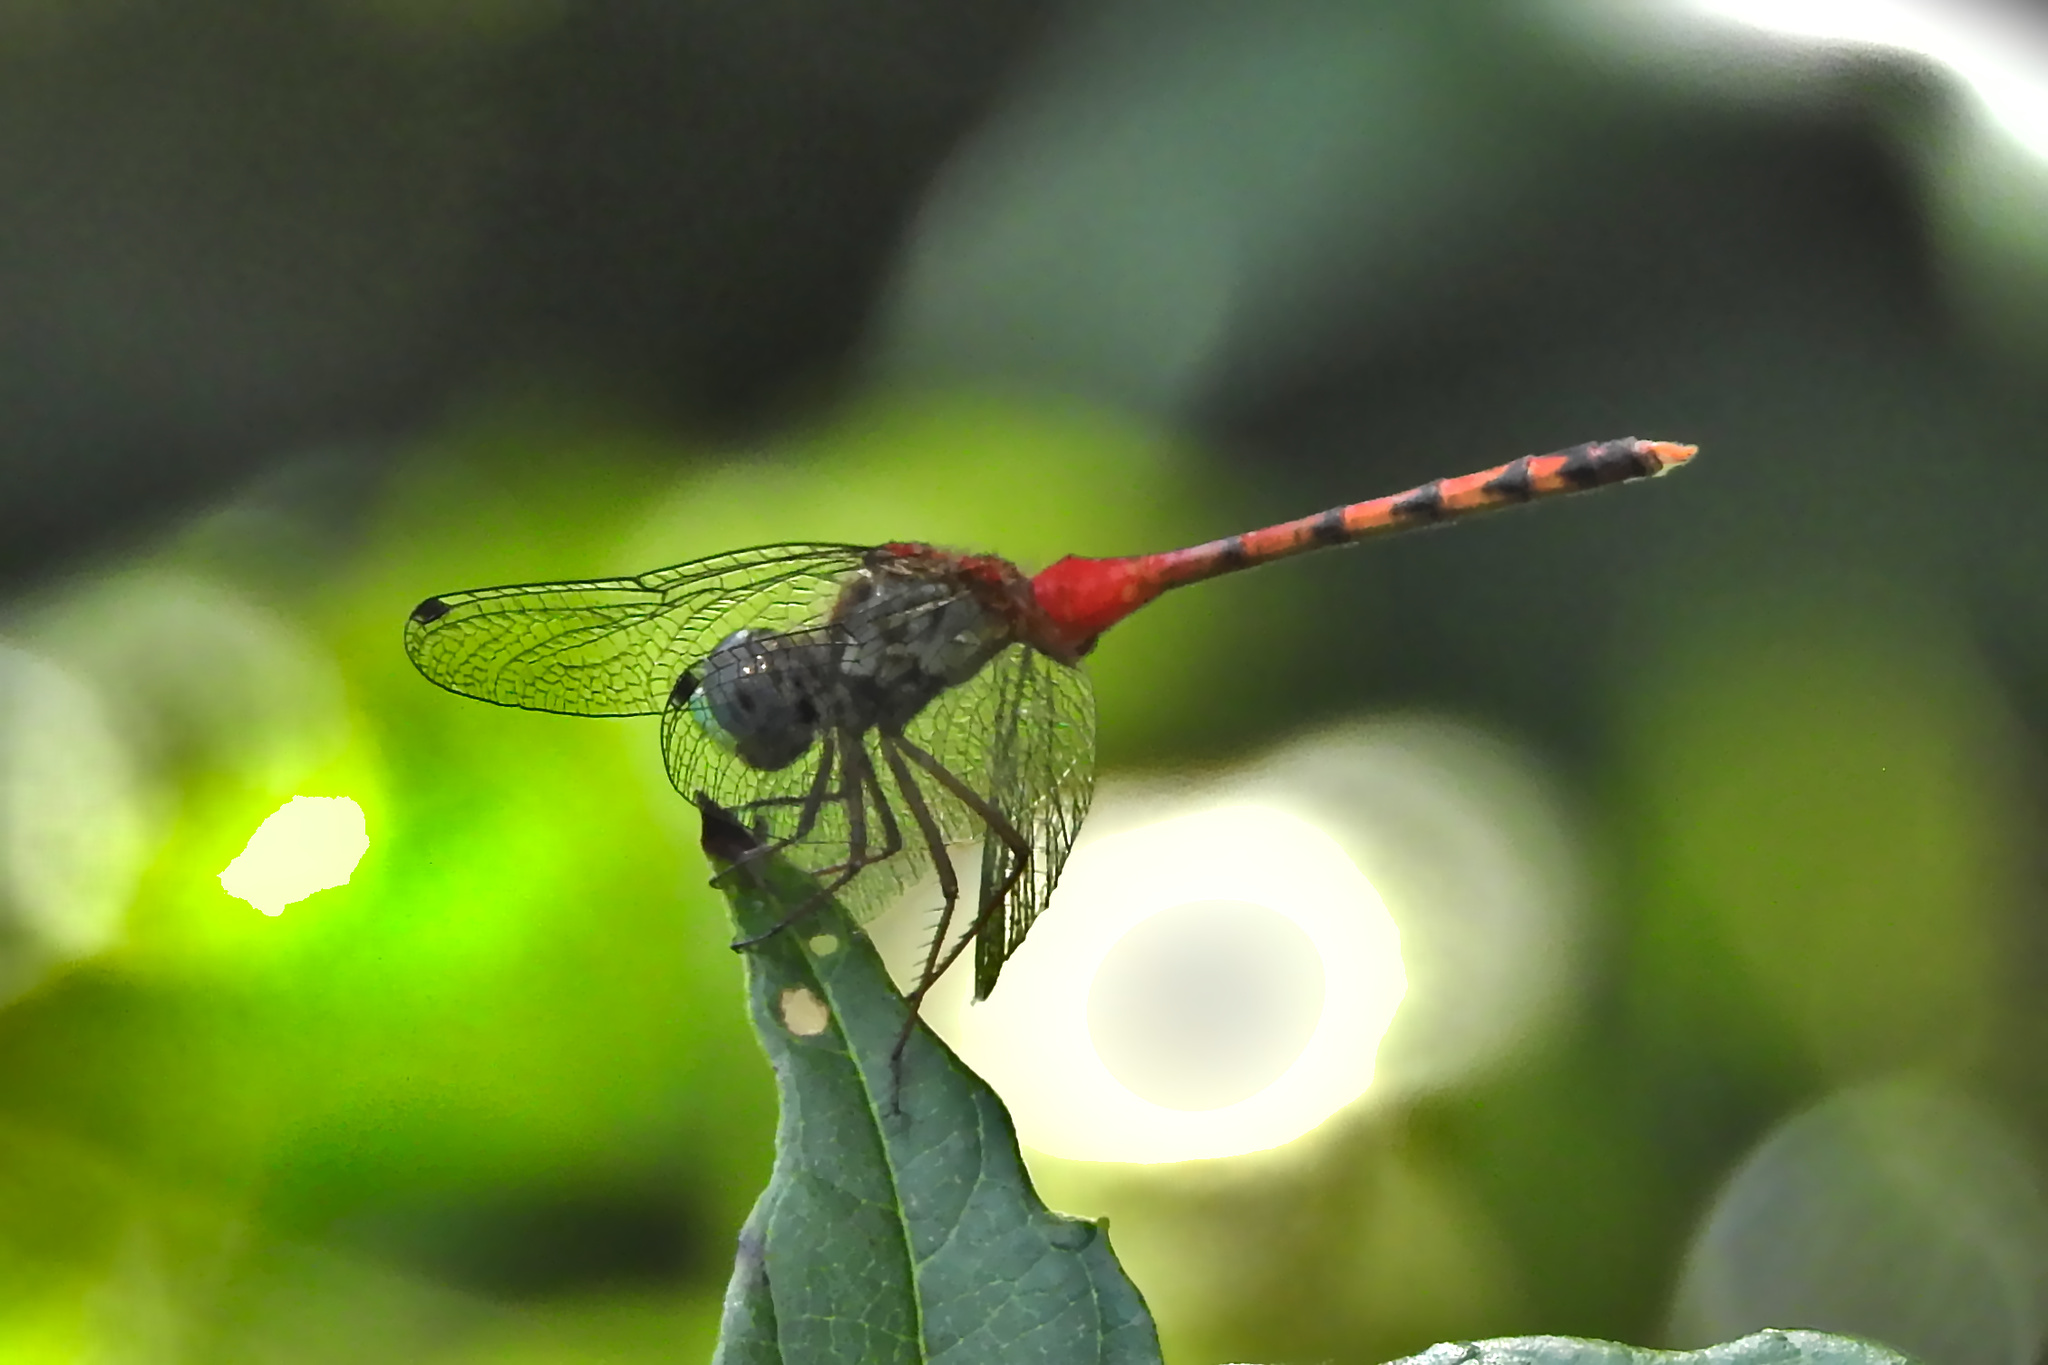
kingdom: Animalia
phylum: Arthropoda
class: Insecta
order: Odonata
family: Libellulidae
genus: Sympetrum
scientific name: Sympetrum ambiguum
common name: Blue-faced meadowhawk
